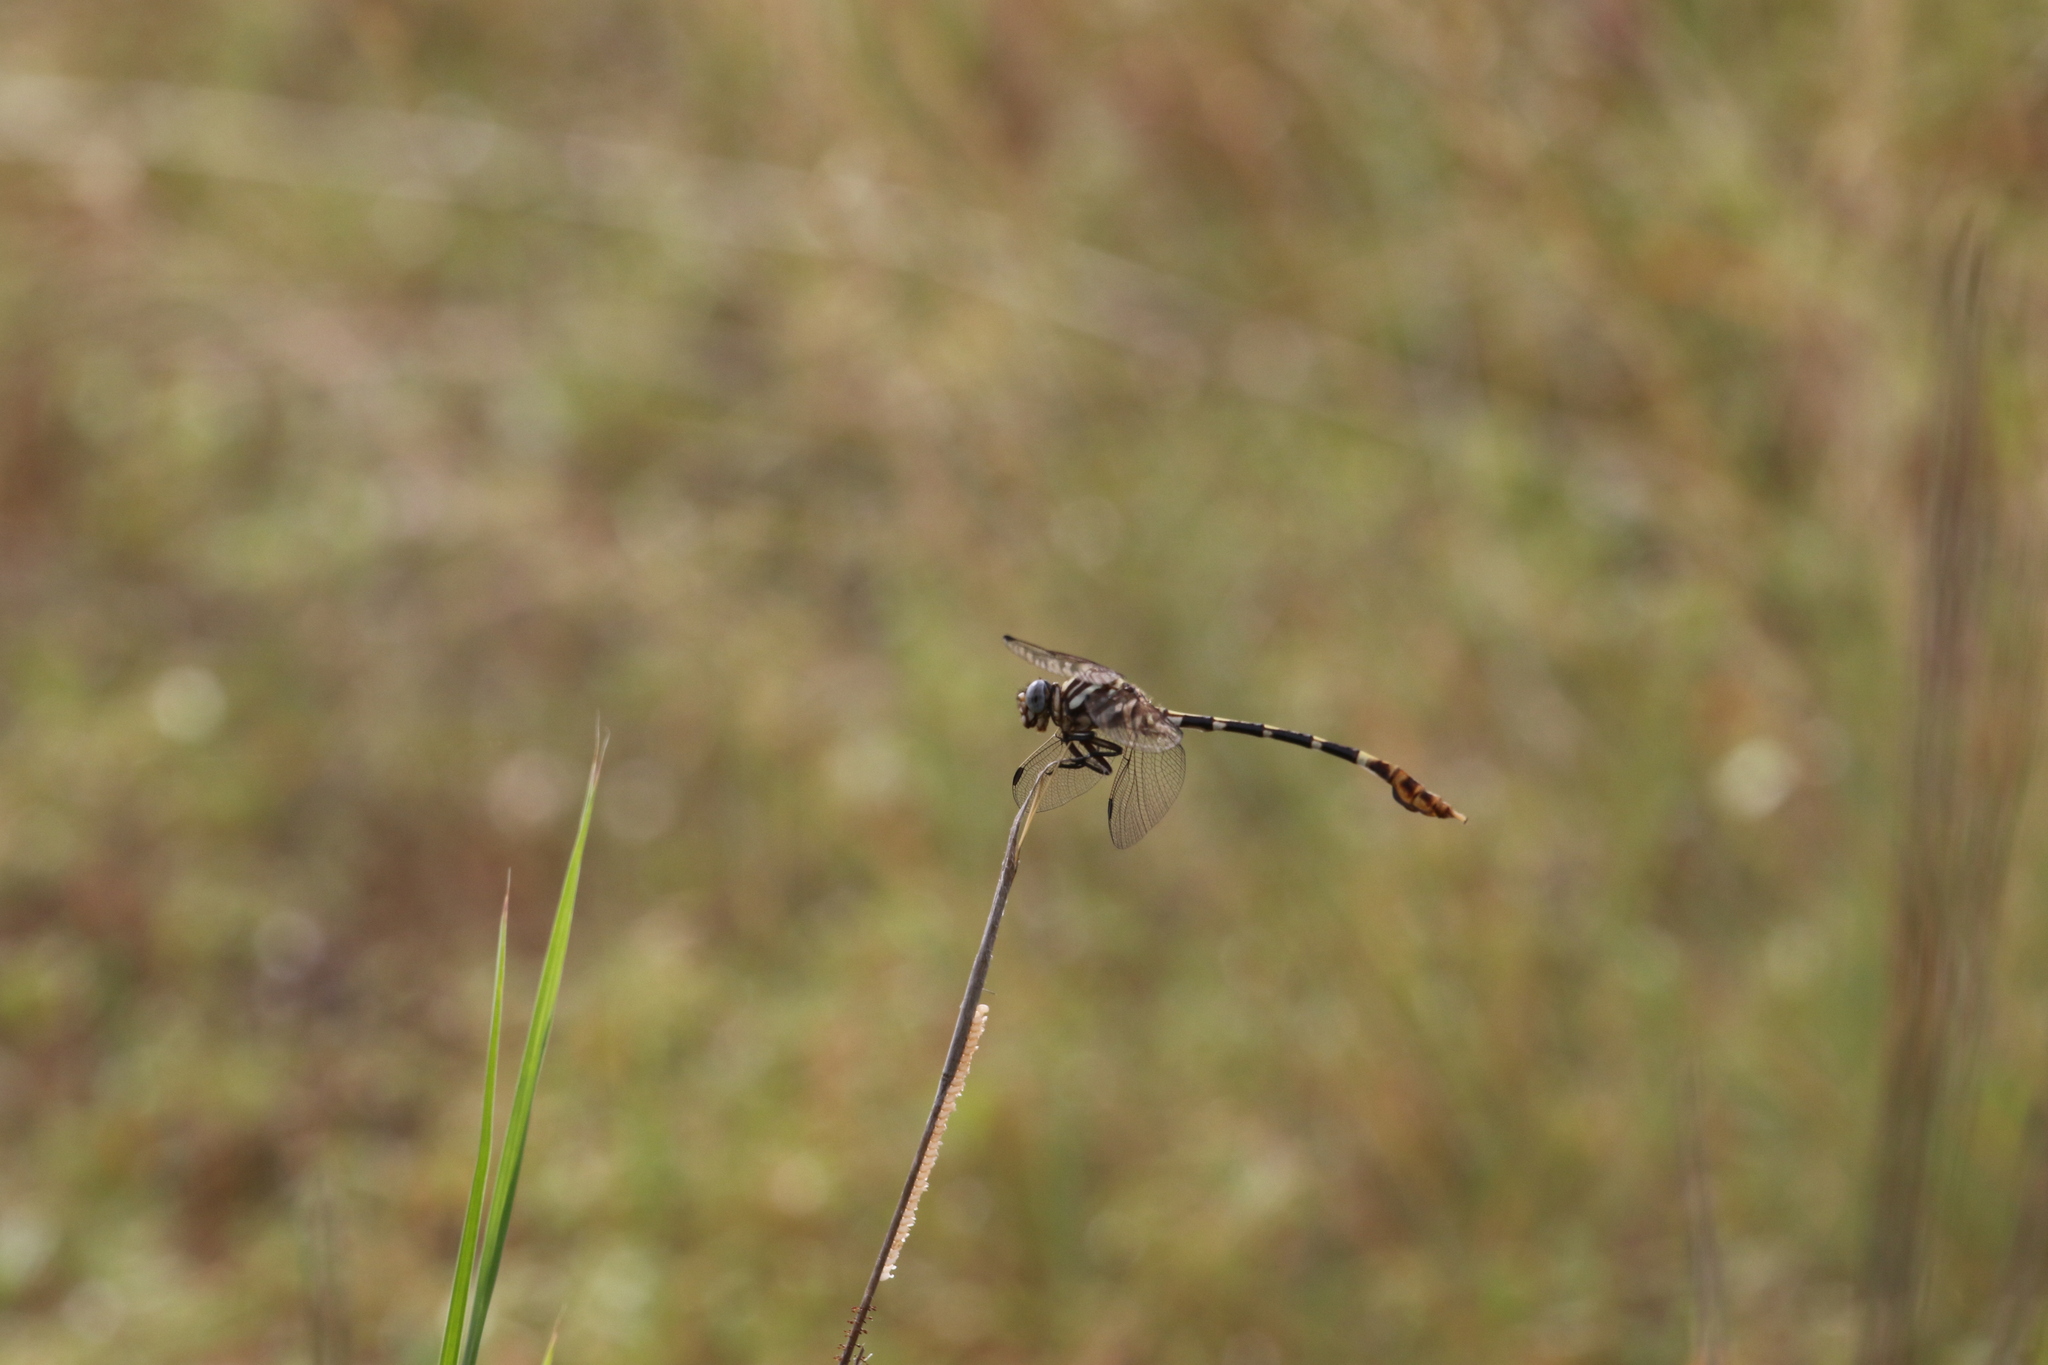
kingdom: Animalia
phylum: Arthropoda
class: Insecta
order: Odonata
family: Gomphidae
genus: Phyllogomphoides
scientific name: Phyllogomphoides albrighti
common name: Five-striped leaftail
